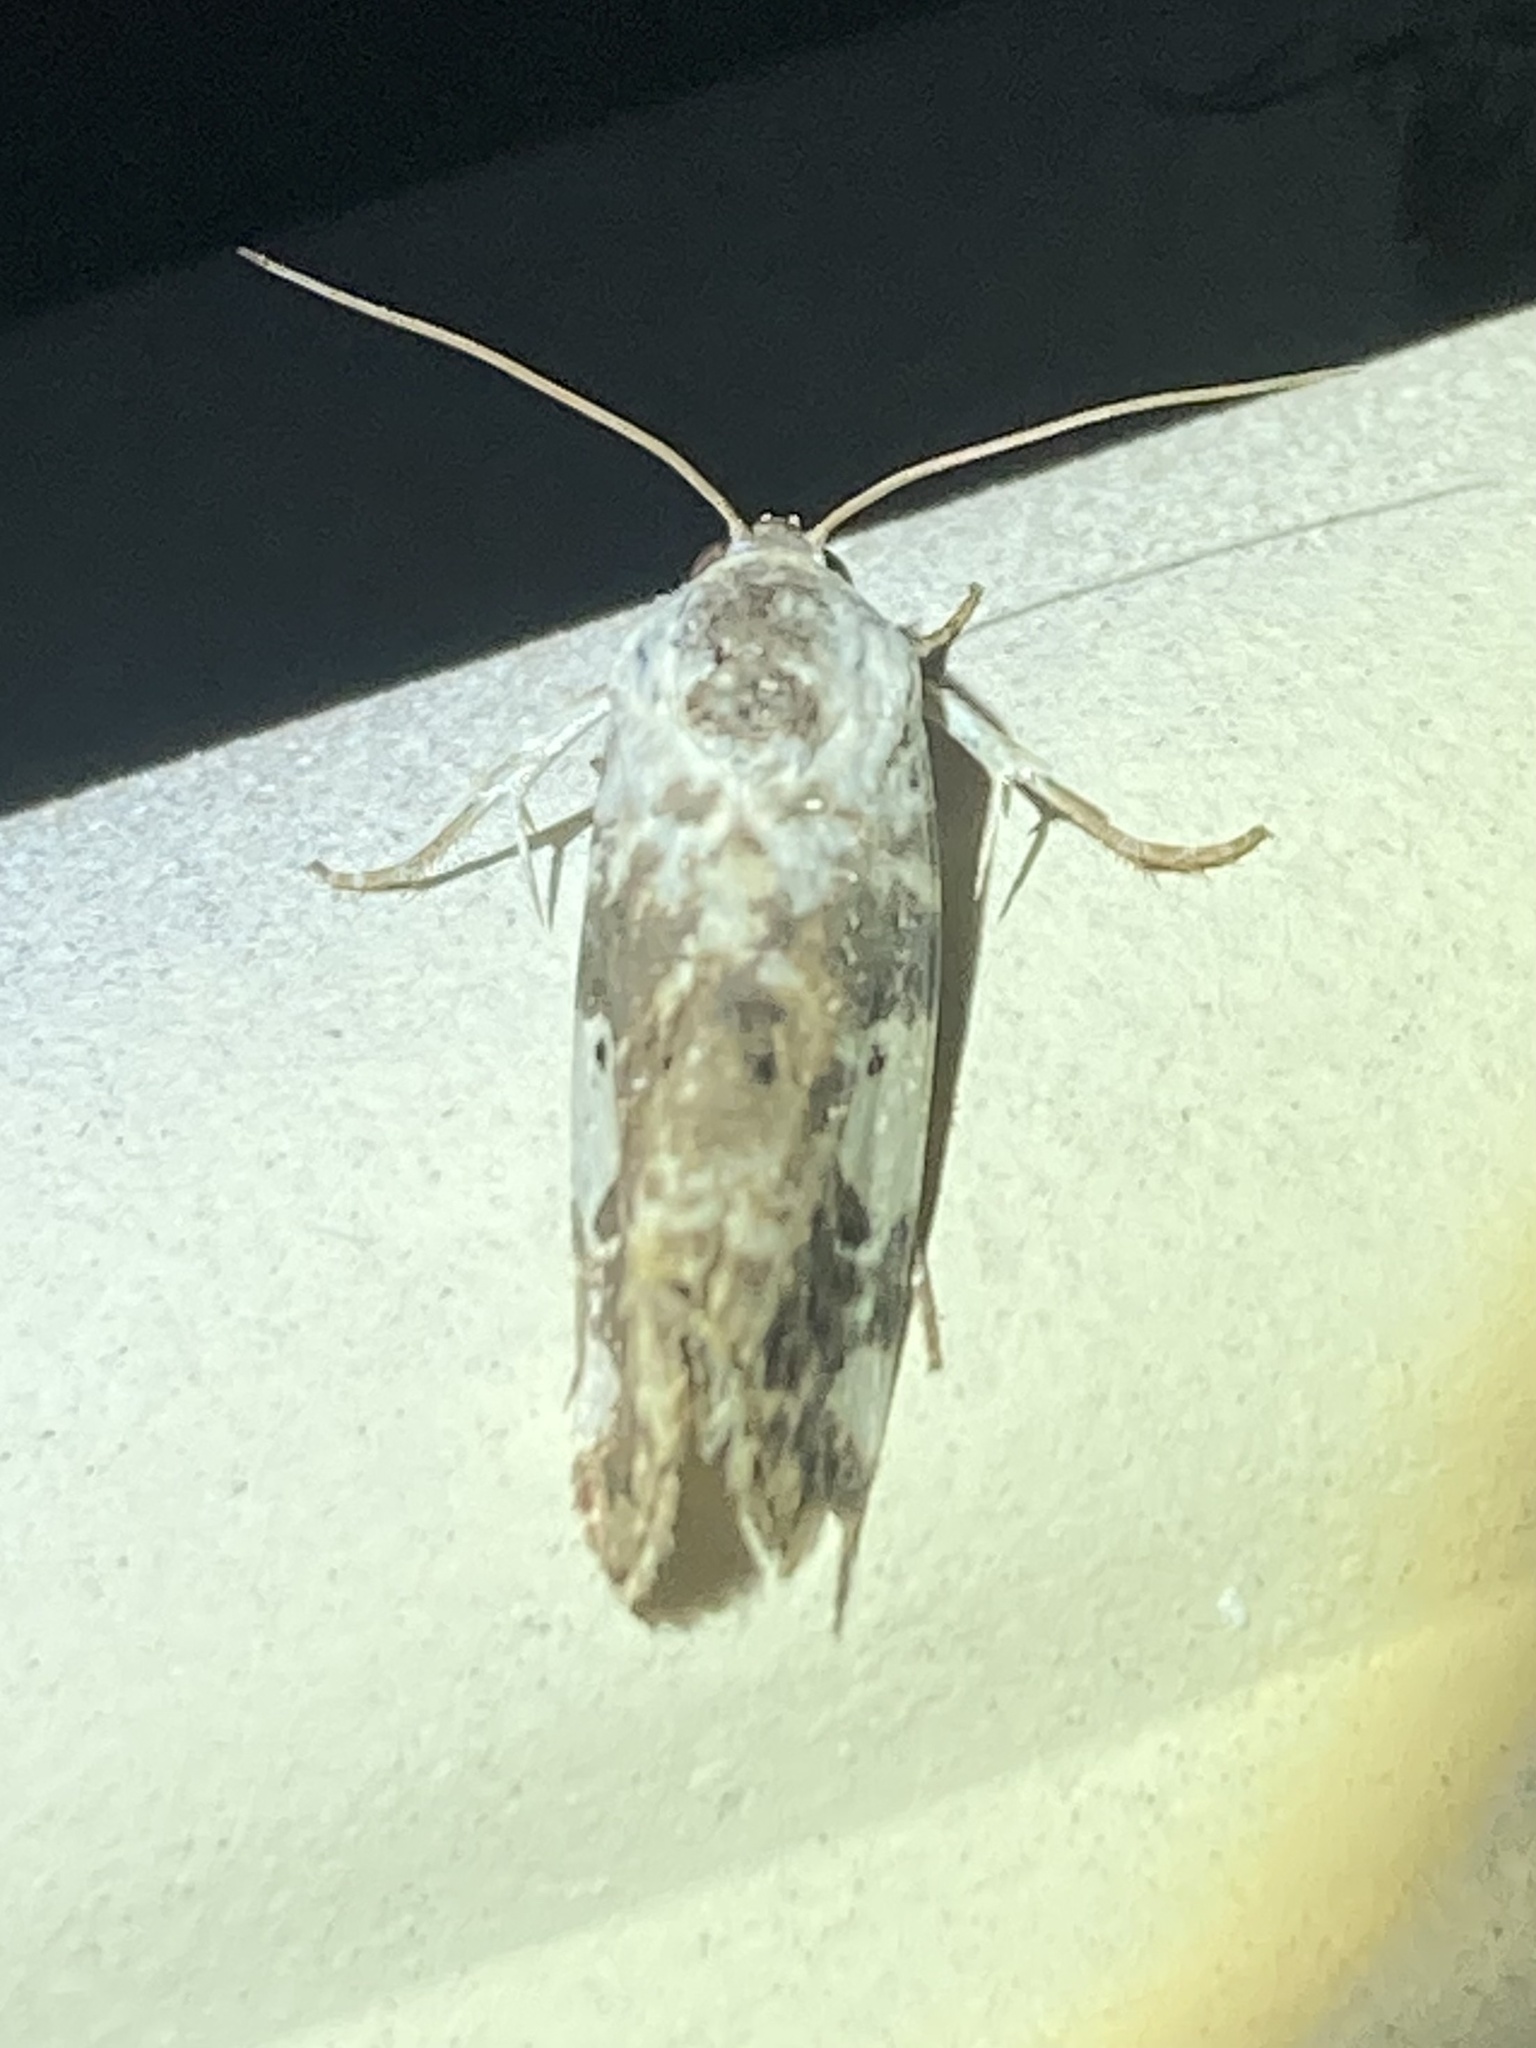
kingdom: Animalia
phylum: Arthropoda
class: Insecta
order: Lepidoptera
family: Noctuidae
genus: Acontia
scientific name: Acontia aprica
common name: Nun
